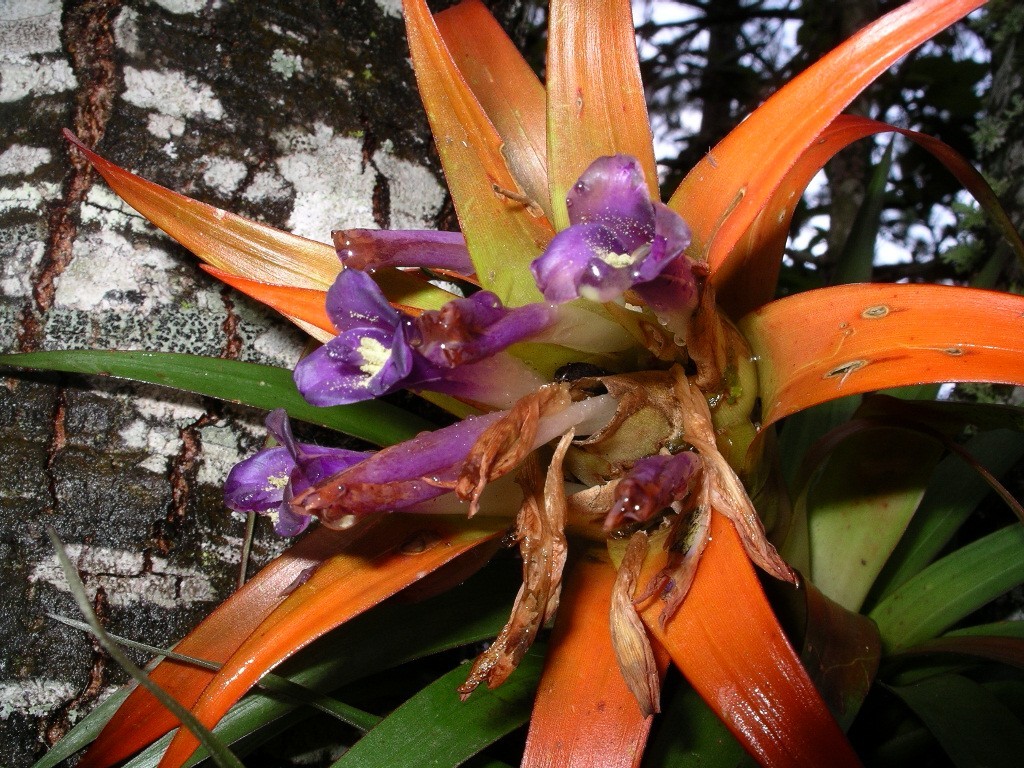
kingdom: Plantae
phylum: Tracheophyta
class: Liliopsida
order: Poales
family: Bromeliaceae
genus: Tillandsia
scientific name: Tillandsia lautneri
